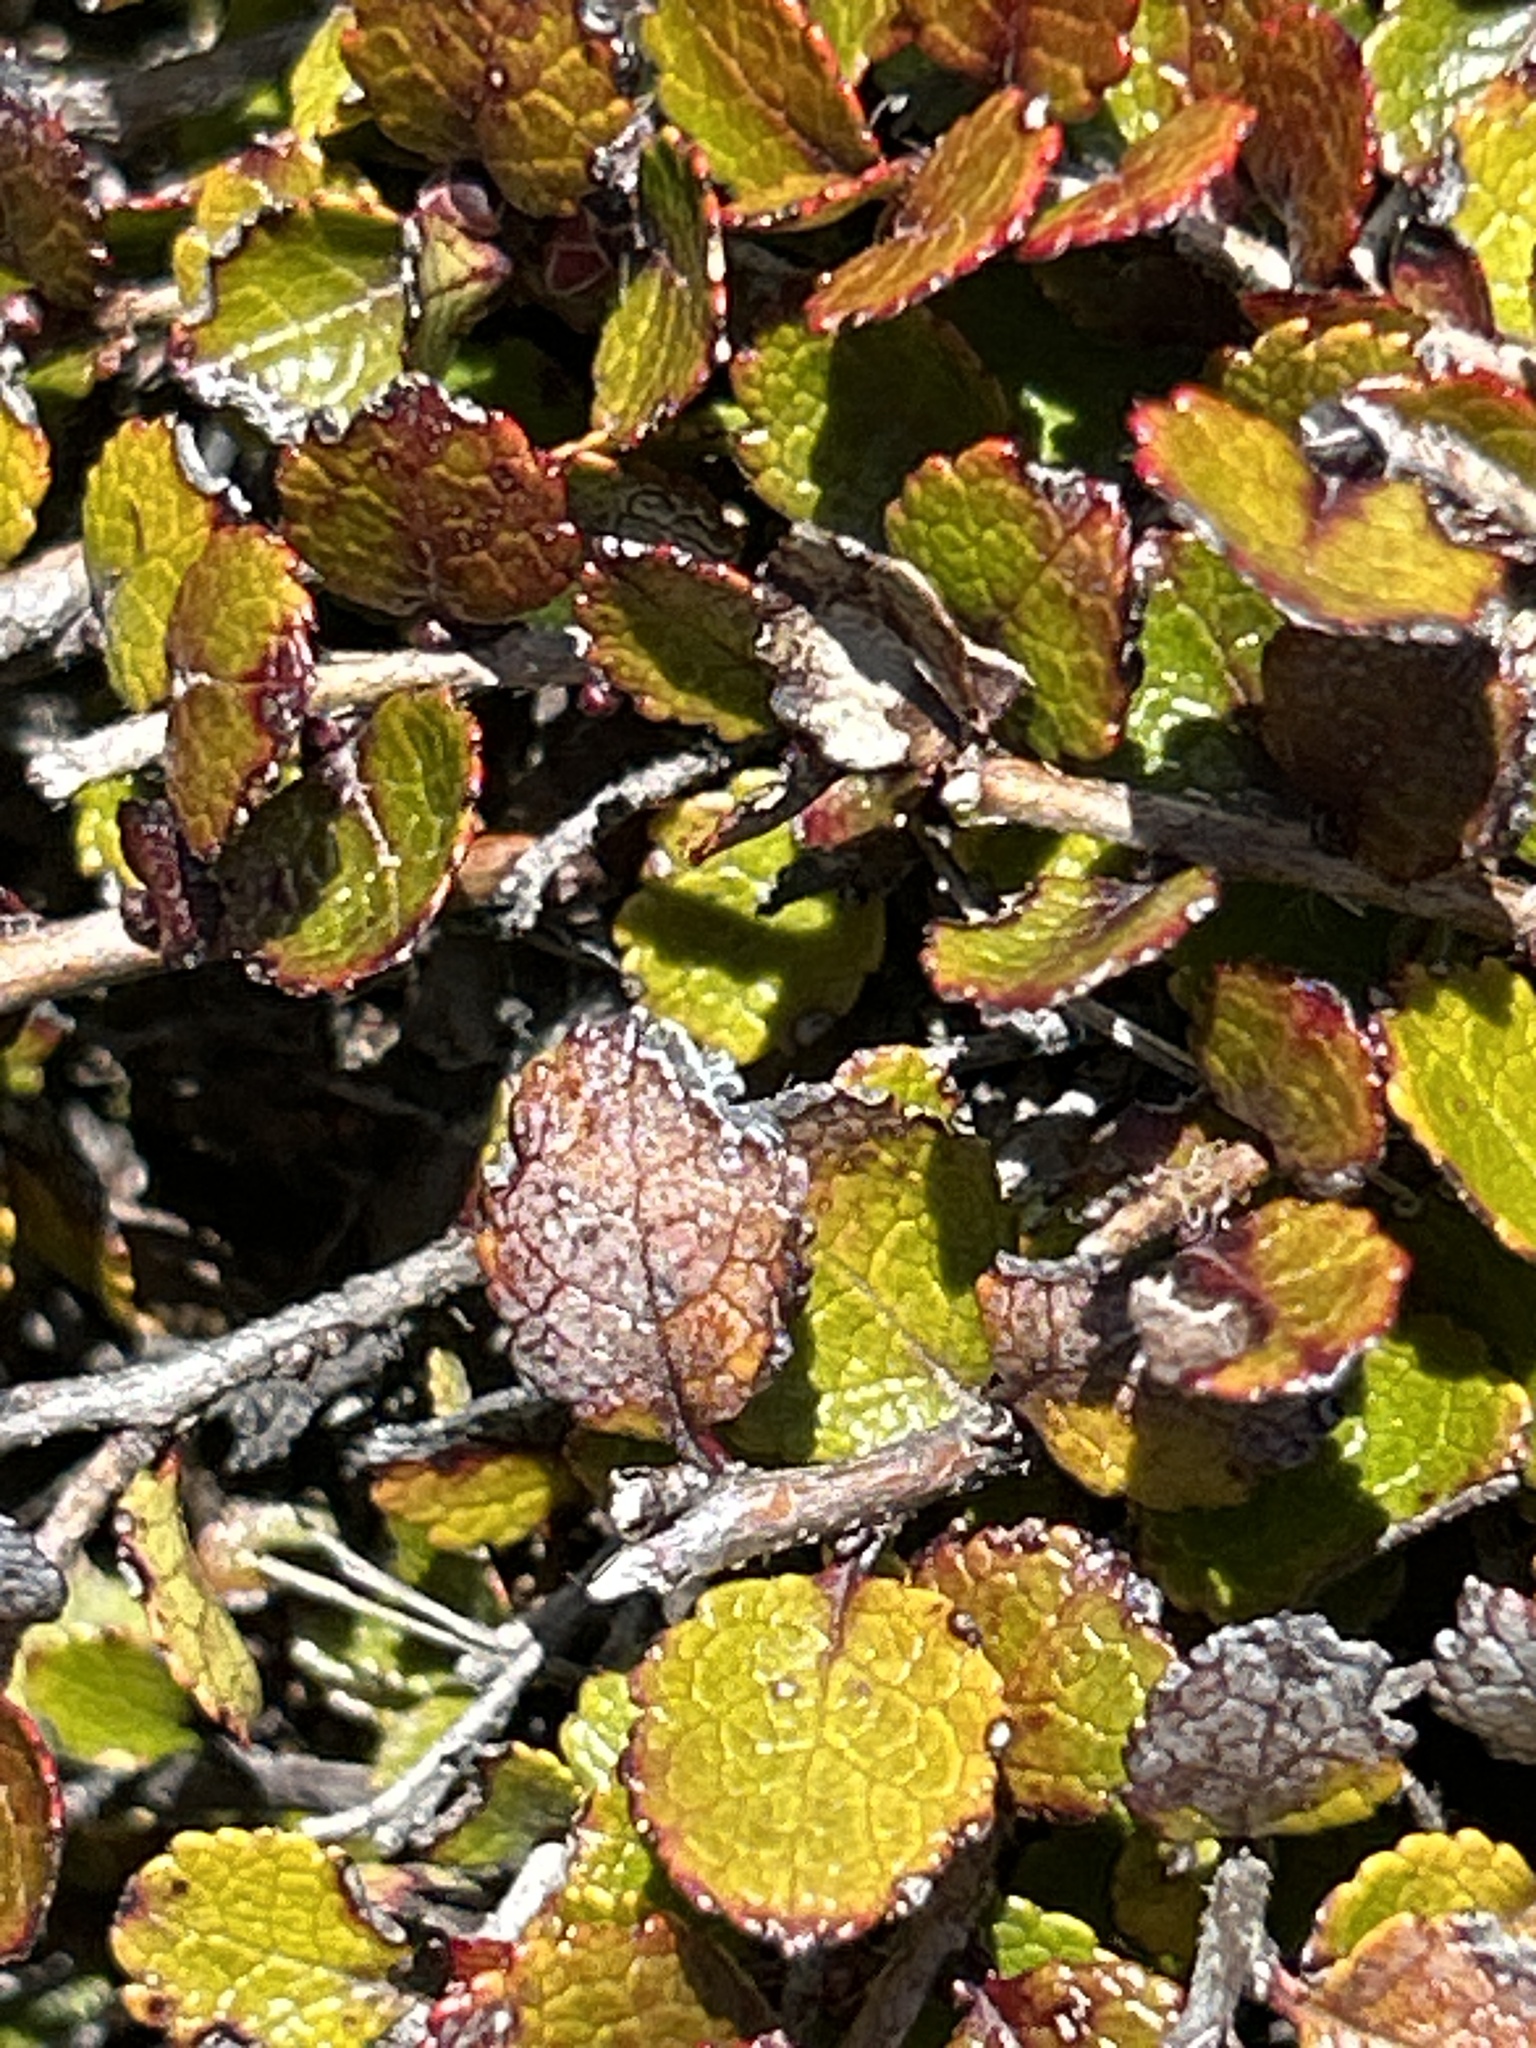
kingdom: Plantae
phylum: Tracheophyta
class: Magnoliopsida
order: Ericales
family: Ericaceae
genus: Gaultheria
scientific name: Gaultheria depressa
